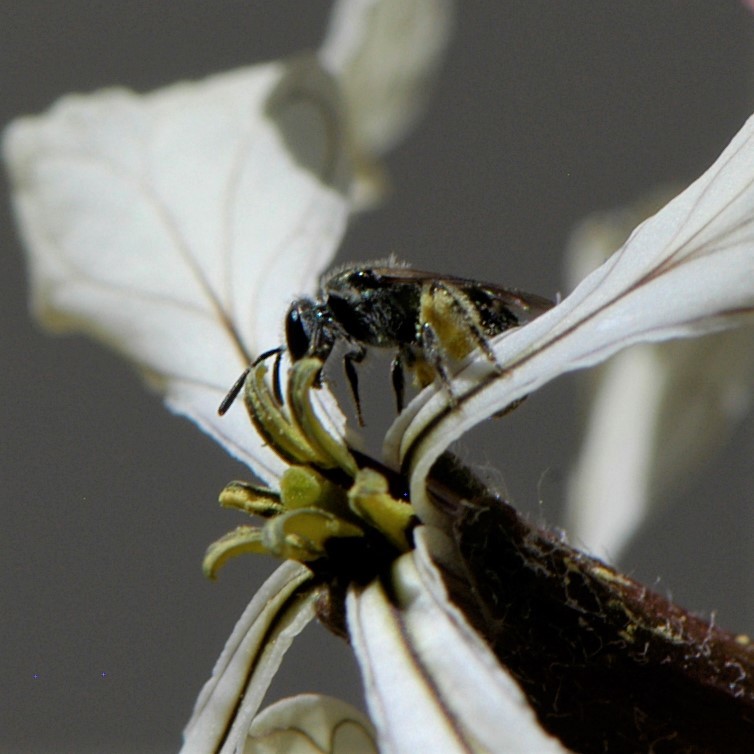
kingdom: Animalia
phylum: Arthropoda
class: Insecta
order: Hymenoptera
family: Halictidae
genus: Dialictus
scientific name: Dialictus
